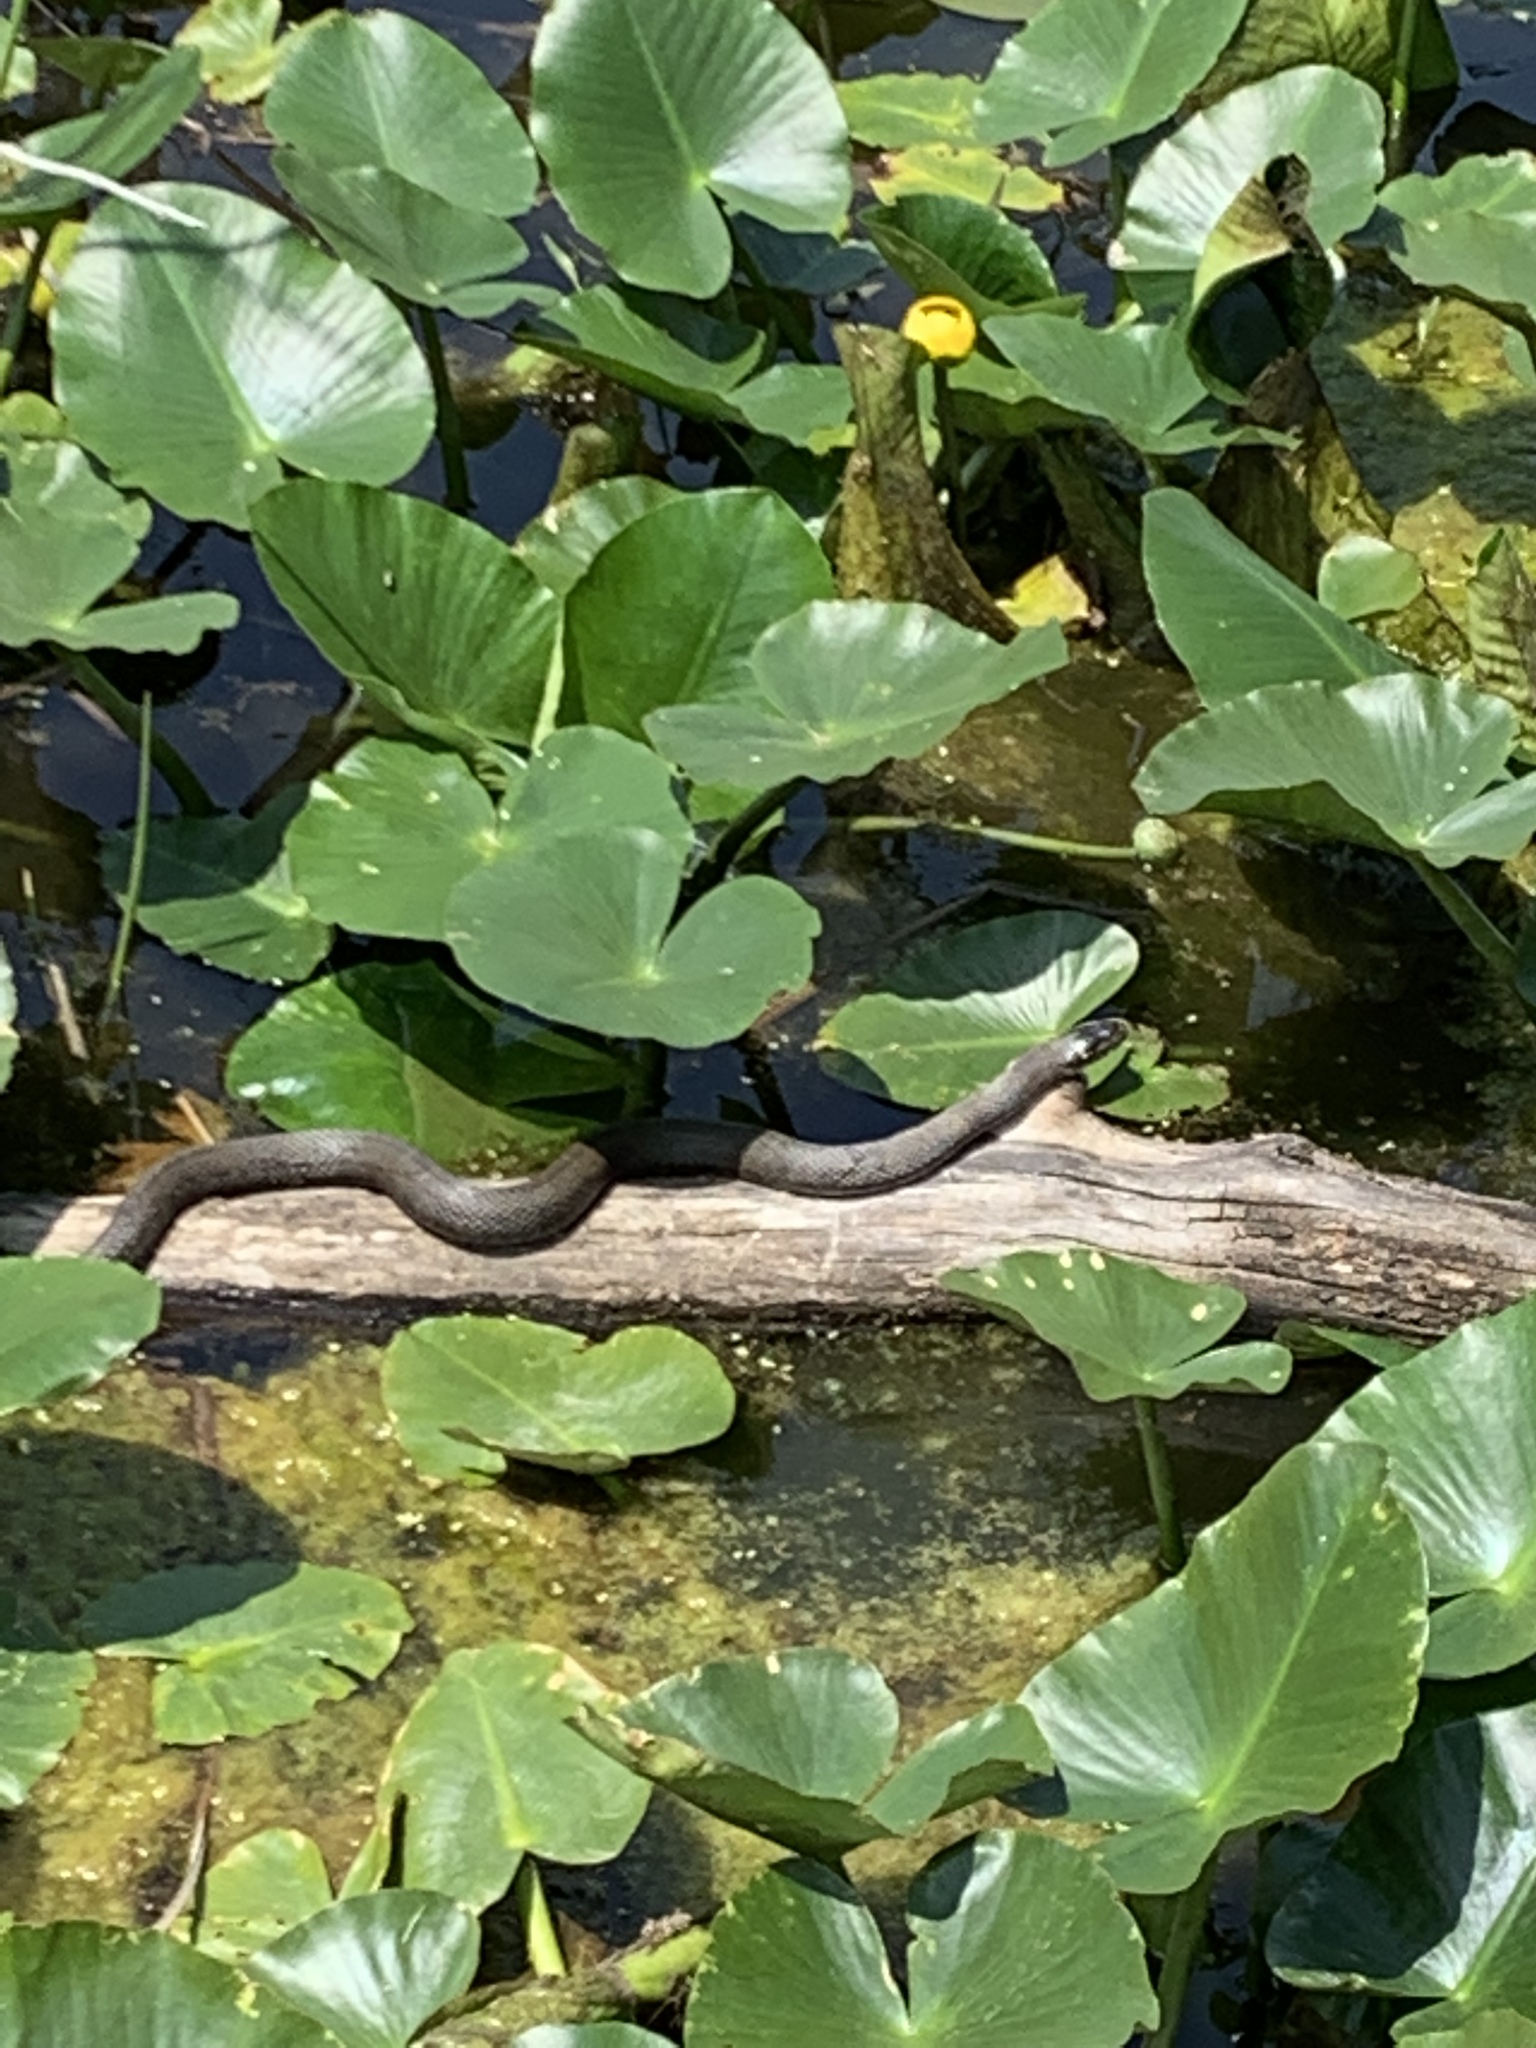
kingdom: Animalia
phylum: Chordata
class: Squamata
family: Colubridae
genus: Nerodia
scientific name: Nerodia sipedon
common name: Northern water snake
